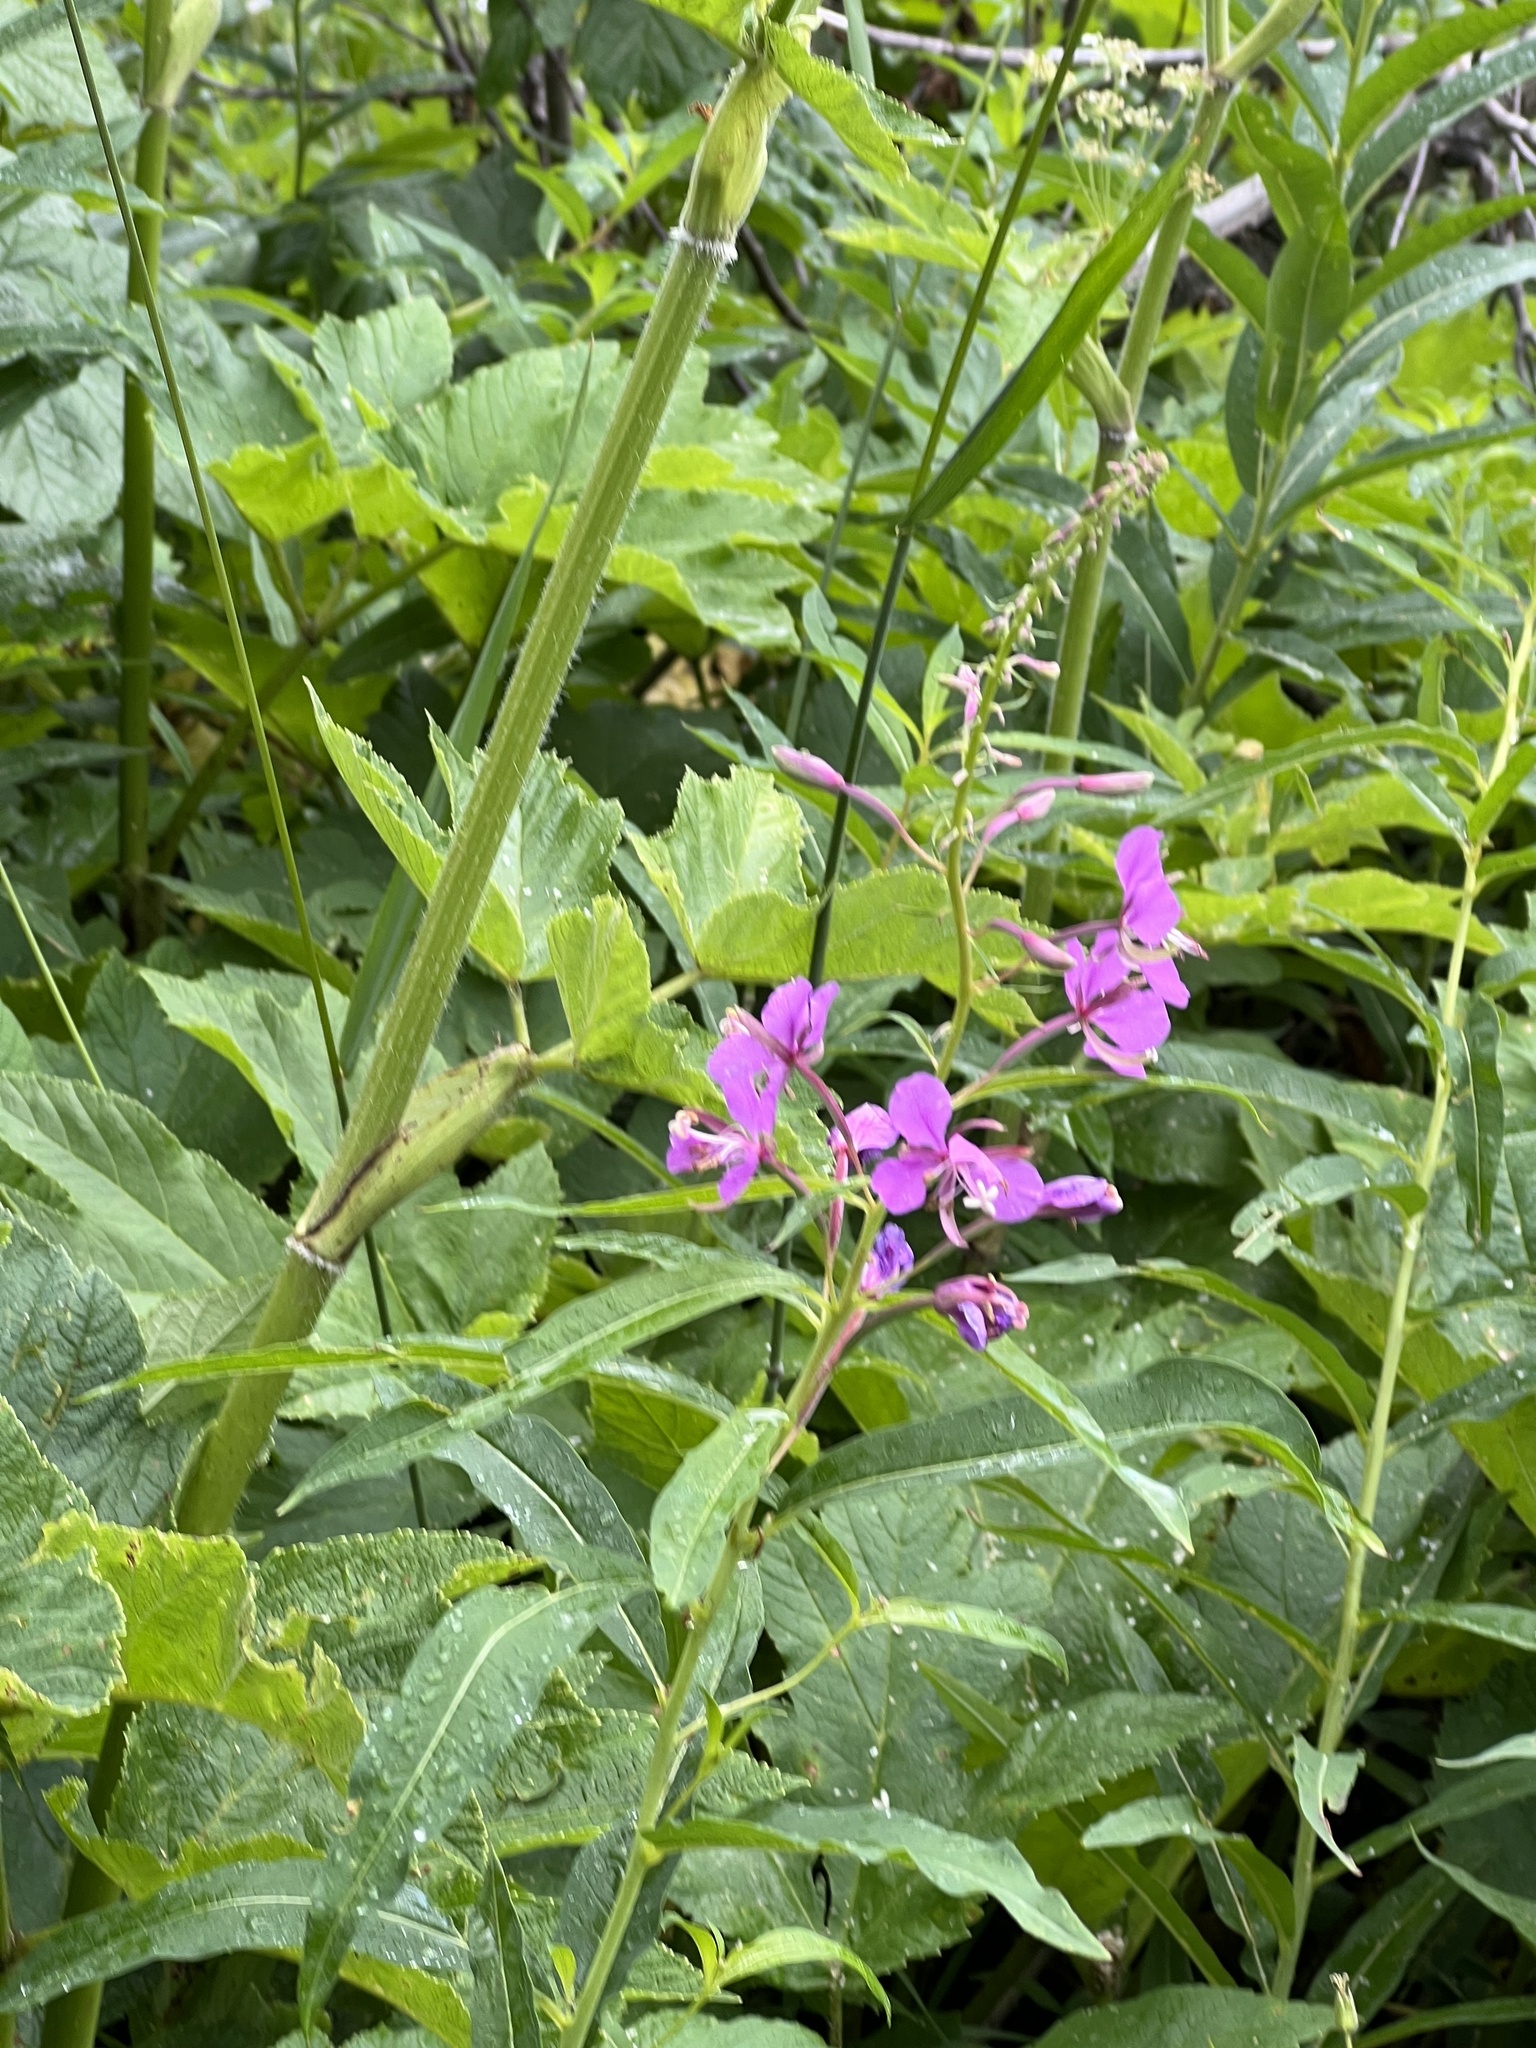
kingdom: Plantae
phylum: Tracheophyta
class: Magnoliopsida
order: Myrtales
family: Onagraceae
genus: Chamaenerion
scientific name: Chamaenerion angustifolium
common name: Fireweed
